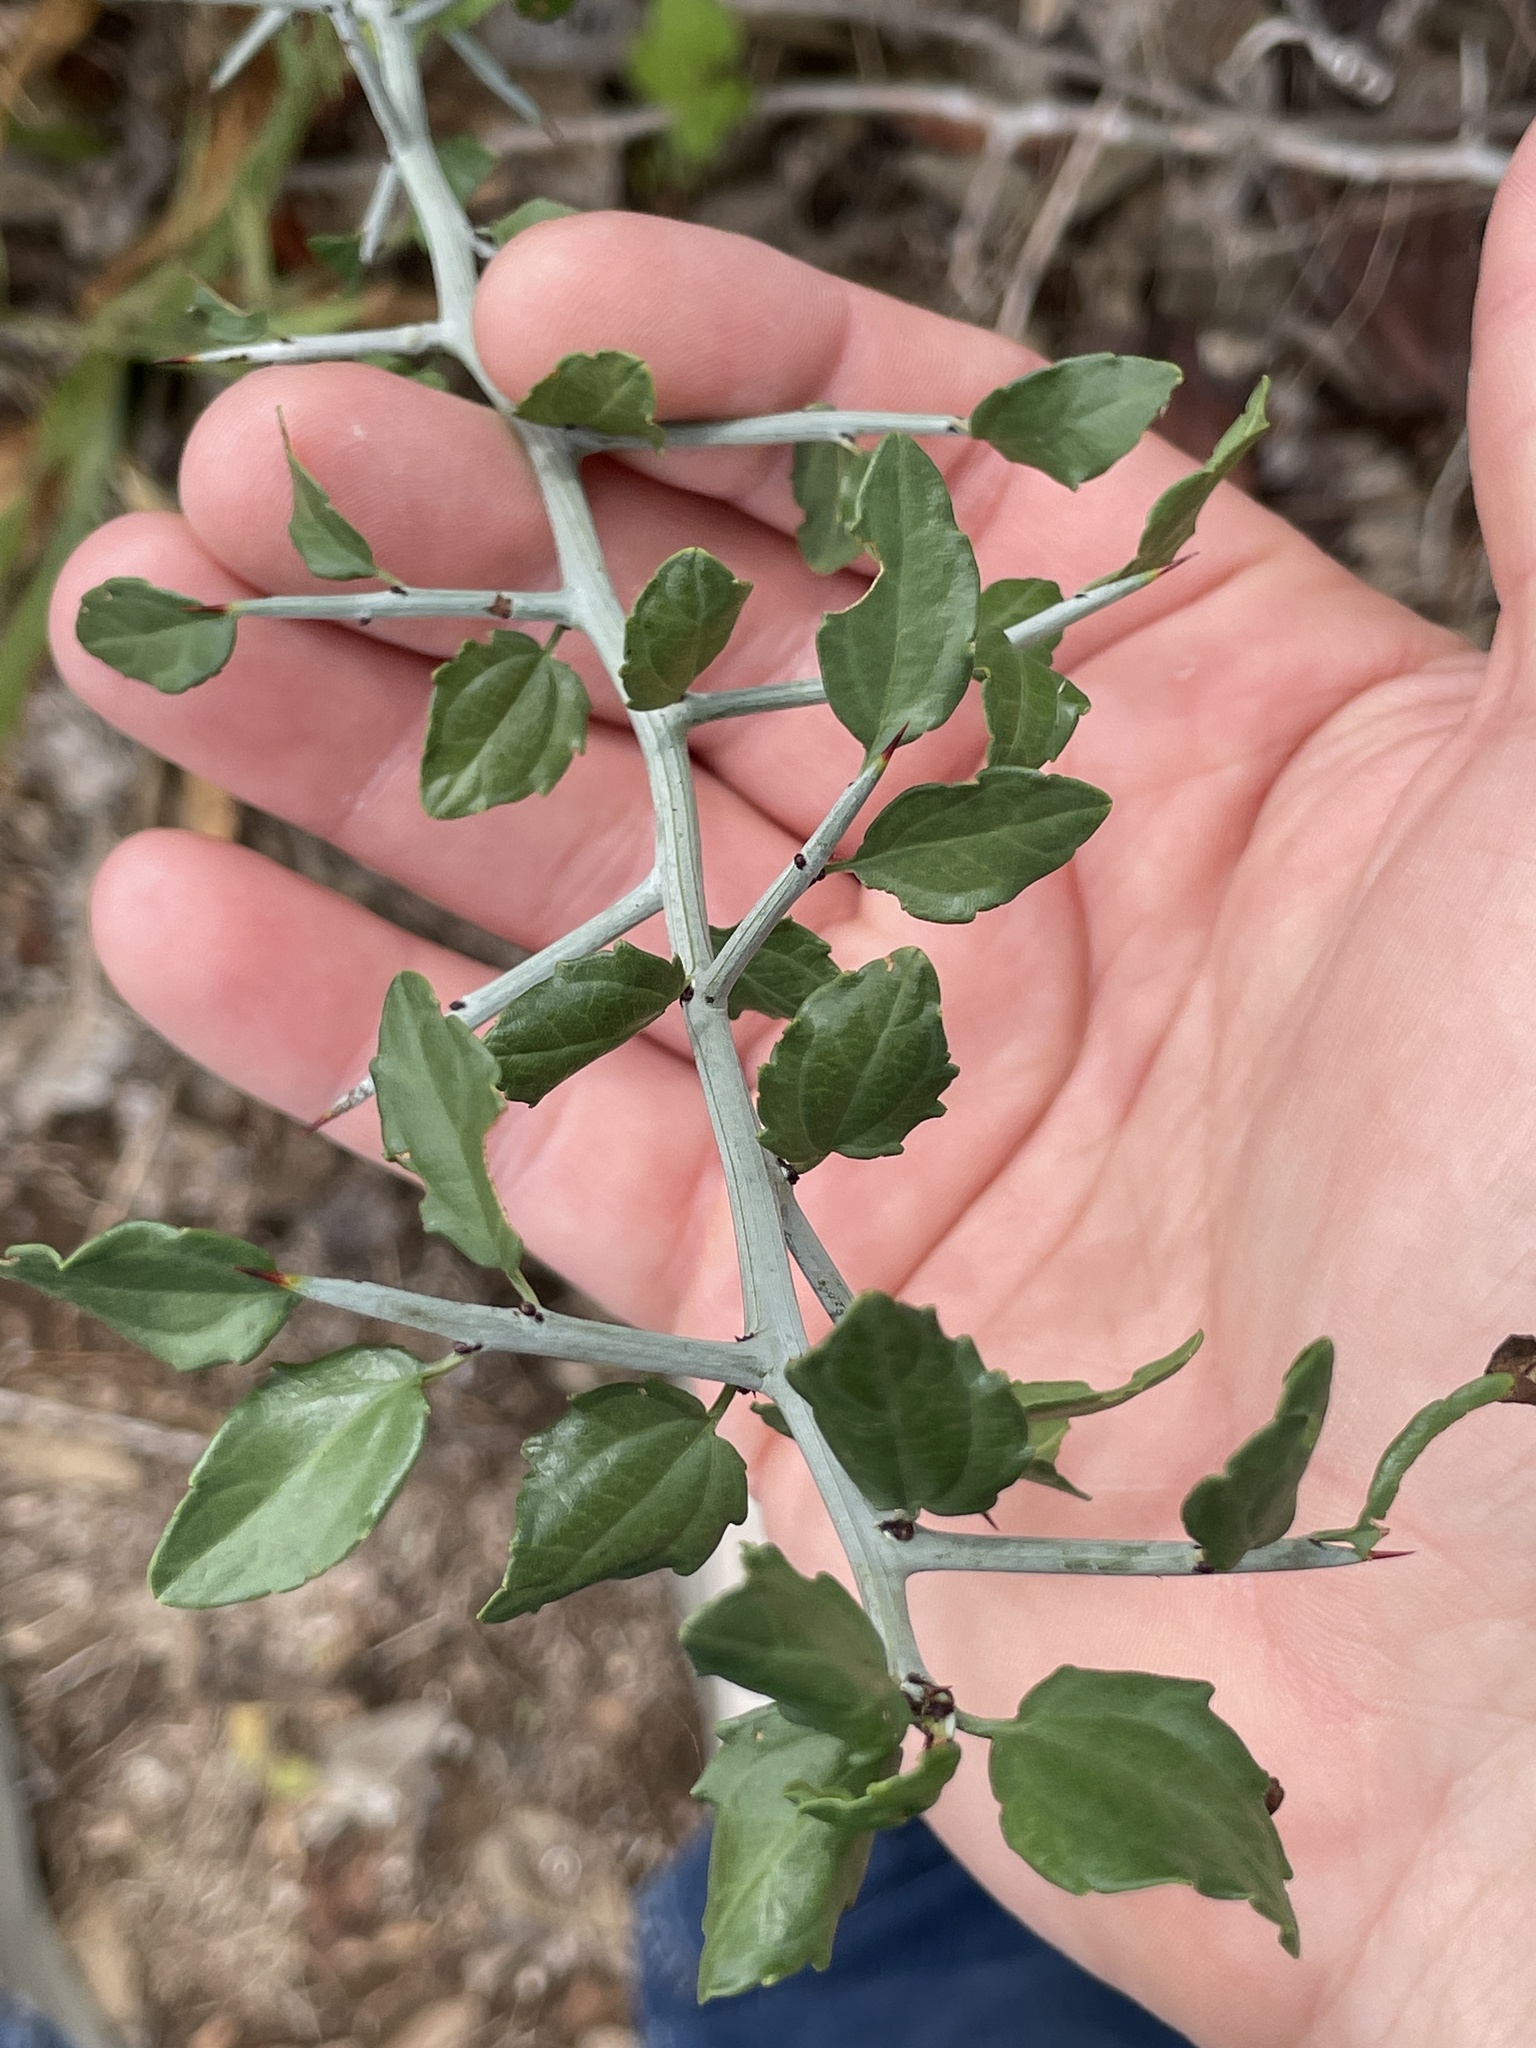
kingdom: Plantae
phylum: Tracheophyta
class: Magnoliopsida
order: Rosales
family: Rhamnaceae
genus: Sarcomphalus
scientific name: Sarcomphalus obtusifolius
